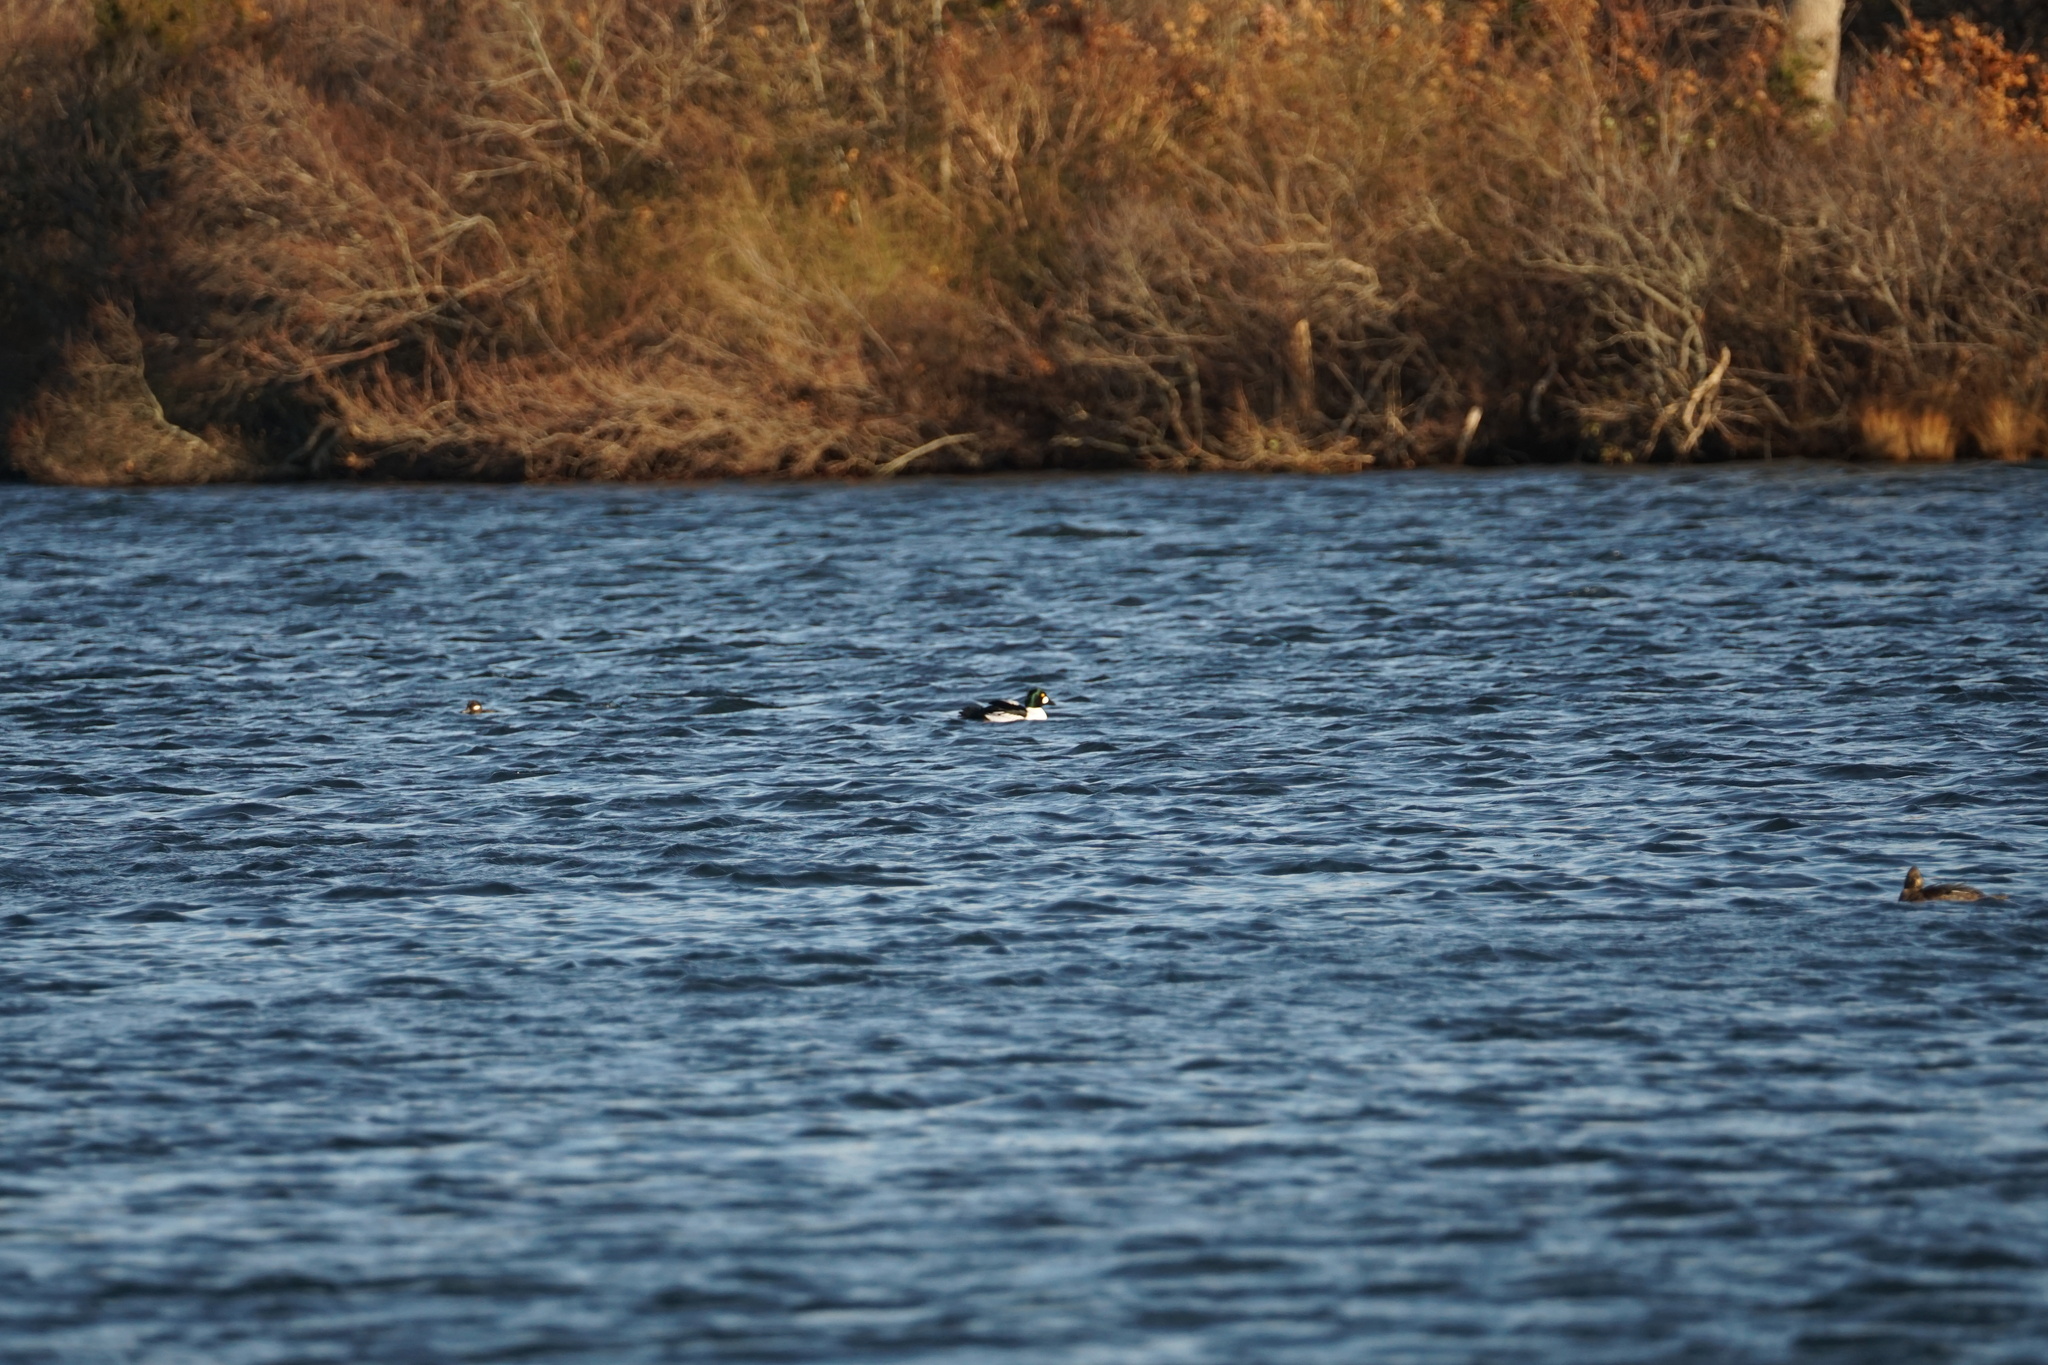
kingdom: Animalia
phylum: Chordata
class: Aves
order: Anseriformes
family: Anatidae
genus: Bucephala
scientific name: Bucephala clangula
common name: Common goldeneye
